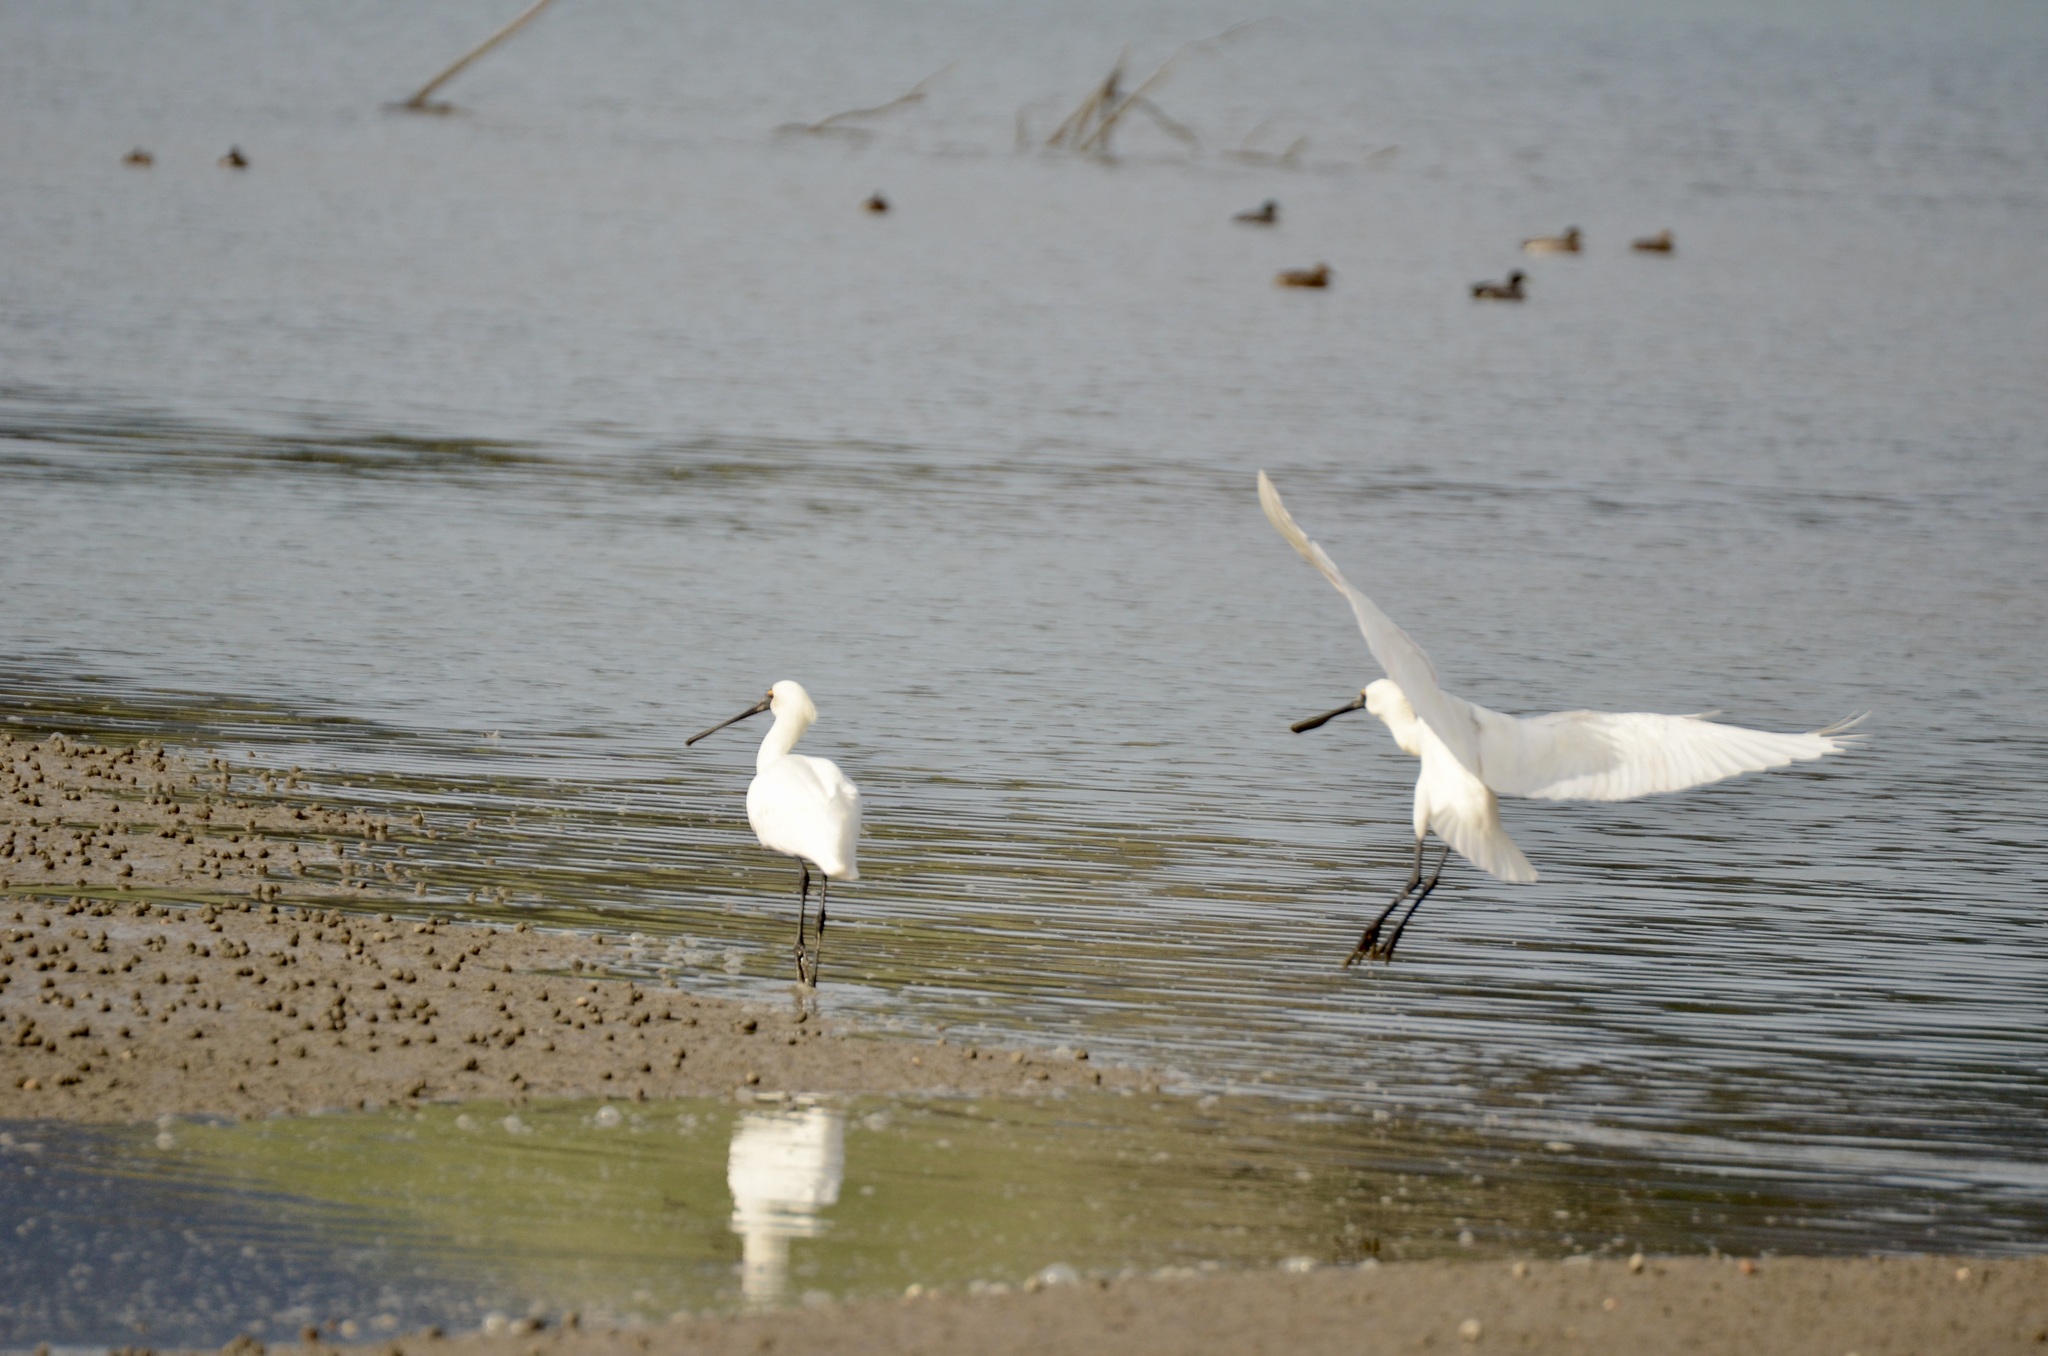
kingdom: Animalia
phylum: Chordata
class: Aves
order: Pelecaniformes
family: Threskiornithidae
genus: Platalea
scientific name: Platalea regia
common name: Royal spoonbill
